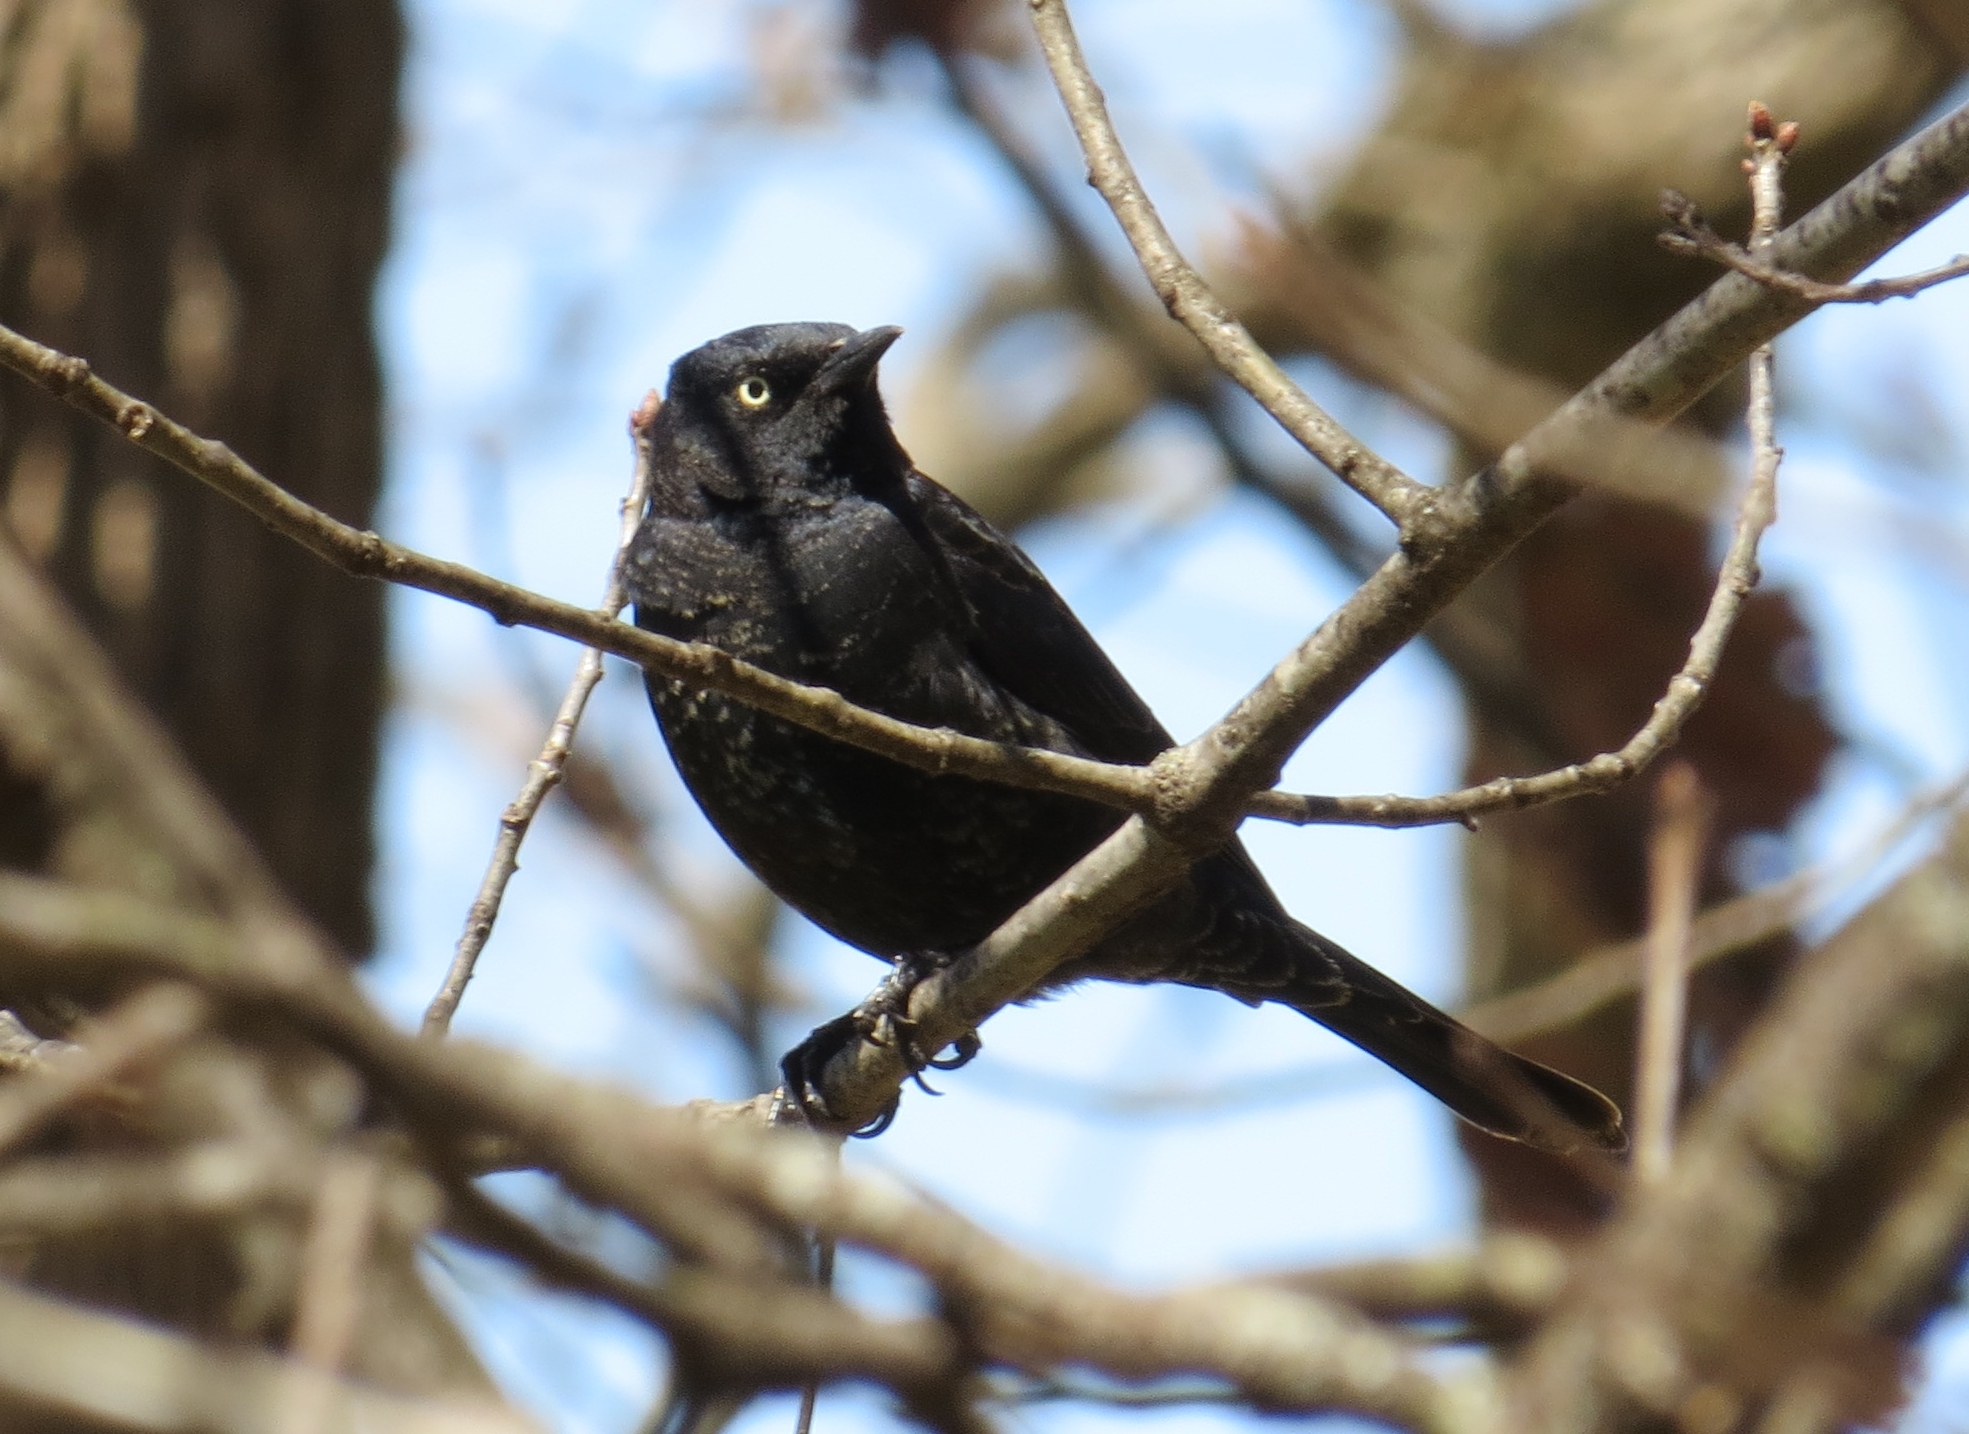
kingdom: Animalia
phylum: Chordata
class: Aves
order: Passeriformes
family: Icteridae
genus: Euphagus
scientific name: Euphagus carolinus
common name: Rusty blackbird
